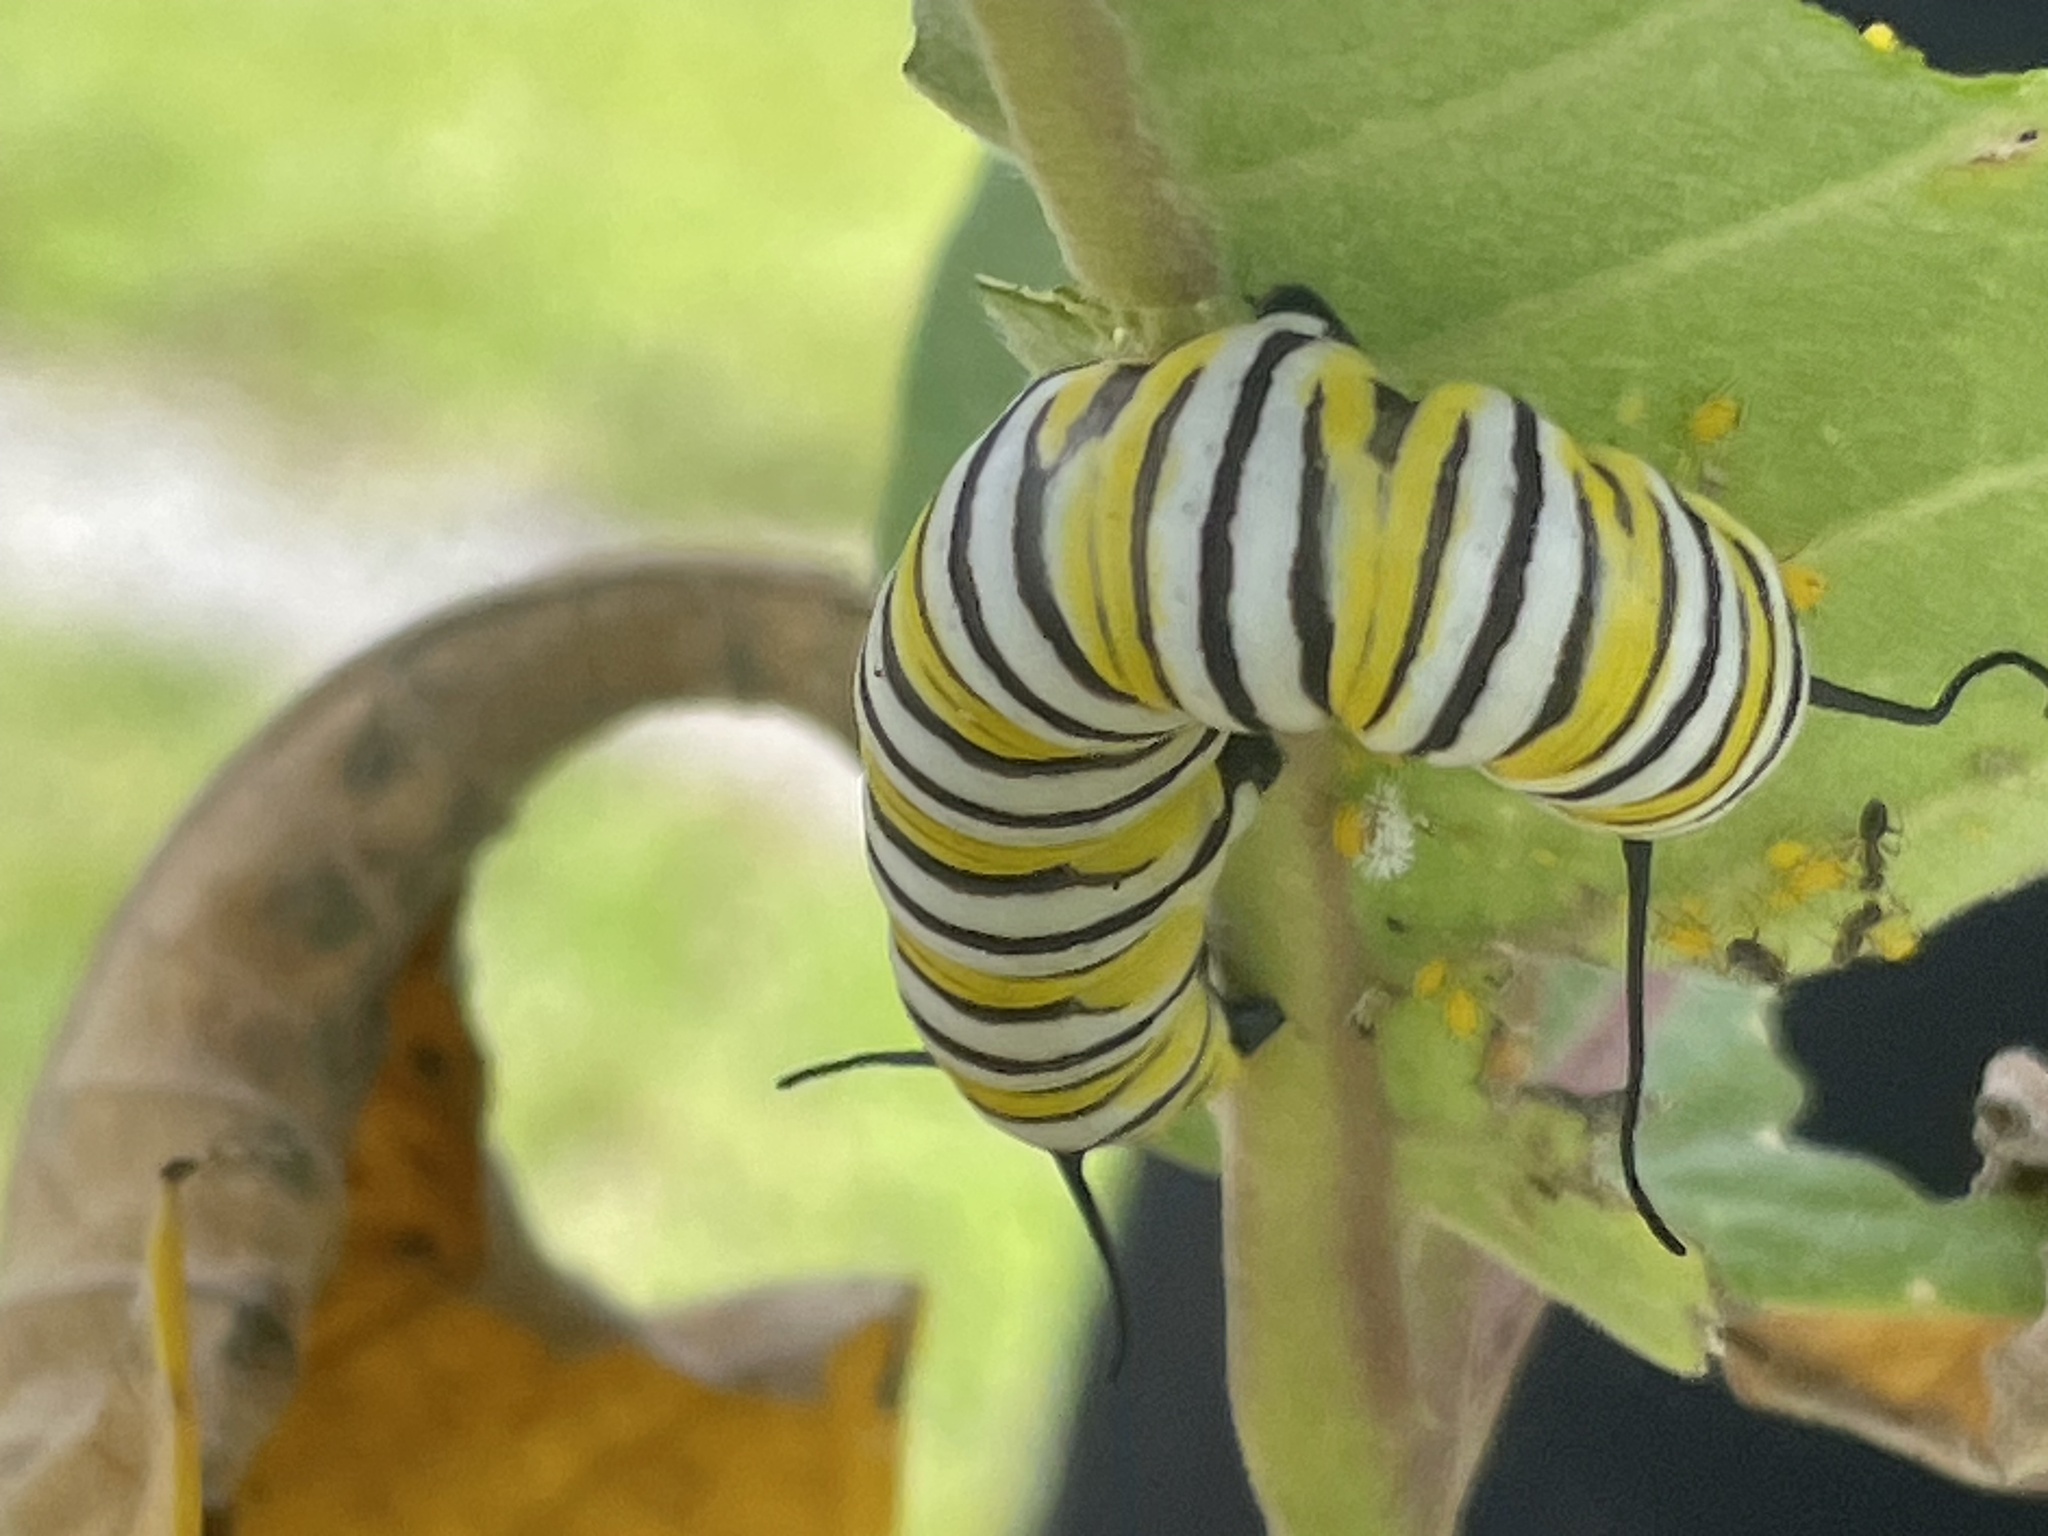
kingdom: Animalia
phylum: Arthropoda
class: Insecta
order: Lepidoptera
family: Nymphalidae
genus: Danaus
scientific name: Danaus plexippus
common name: Monarch
